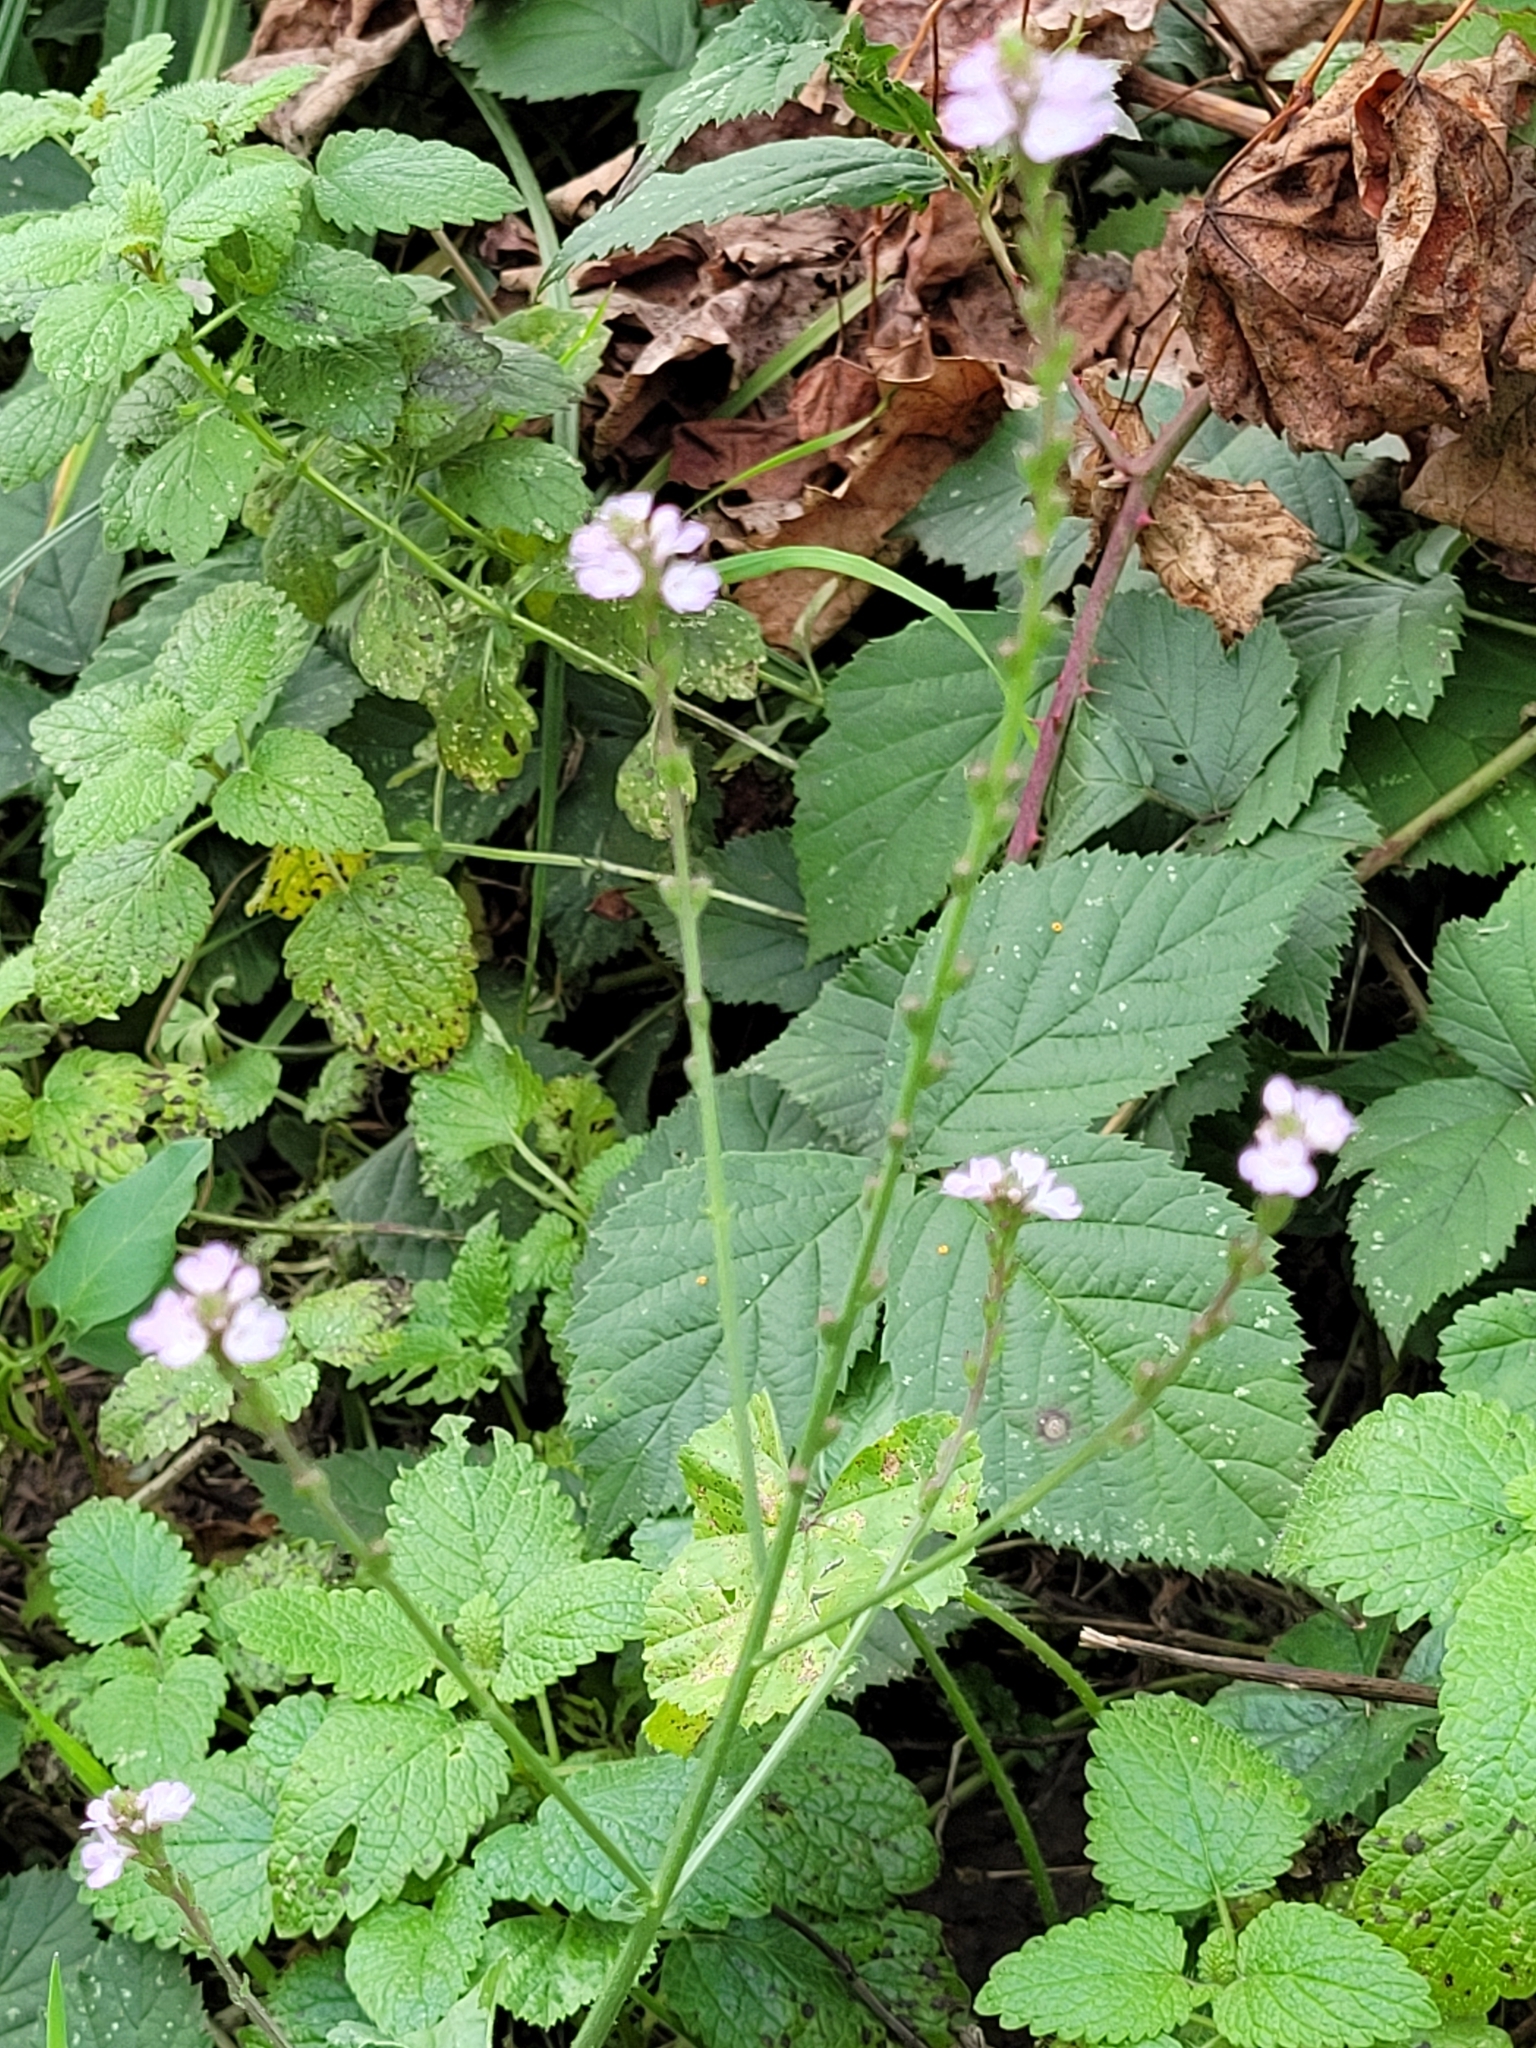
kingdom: Plantae
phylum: Tracheophyta
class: Magnoliopsida
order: Lamiales
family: Verbenaceae
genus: Verbena
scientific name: Verbena officinalis
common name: Vervain
